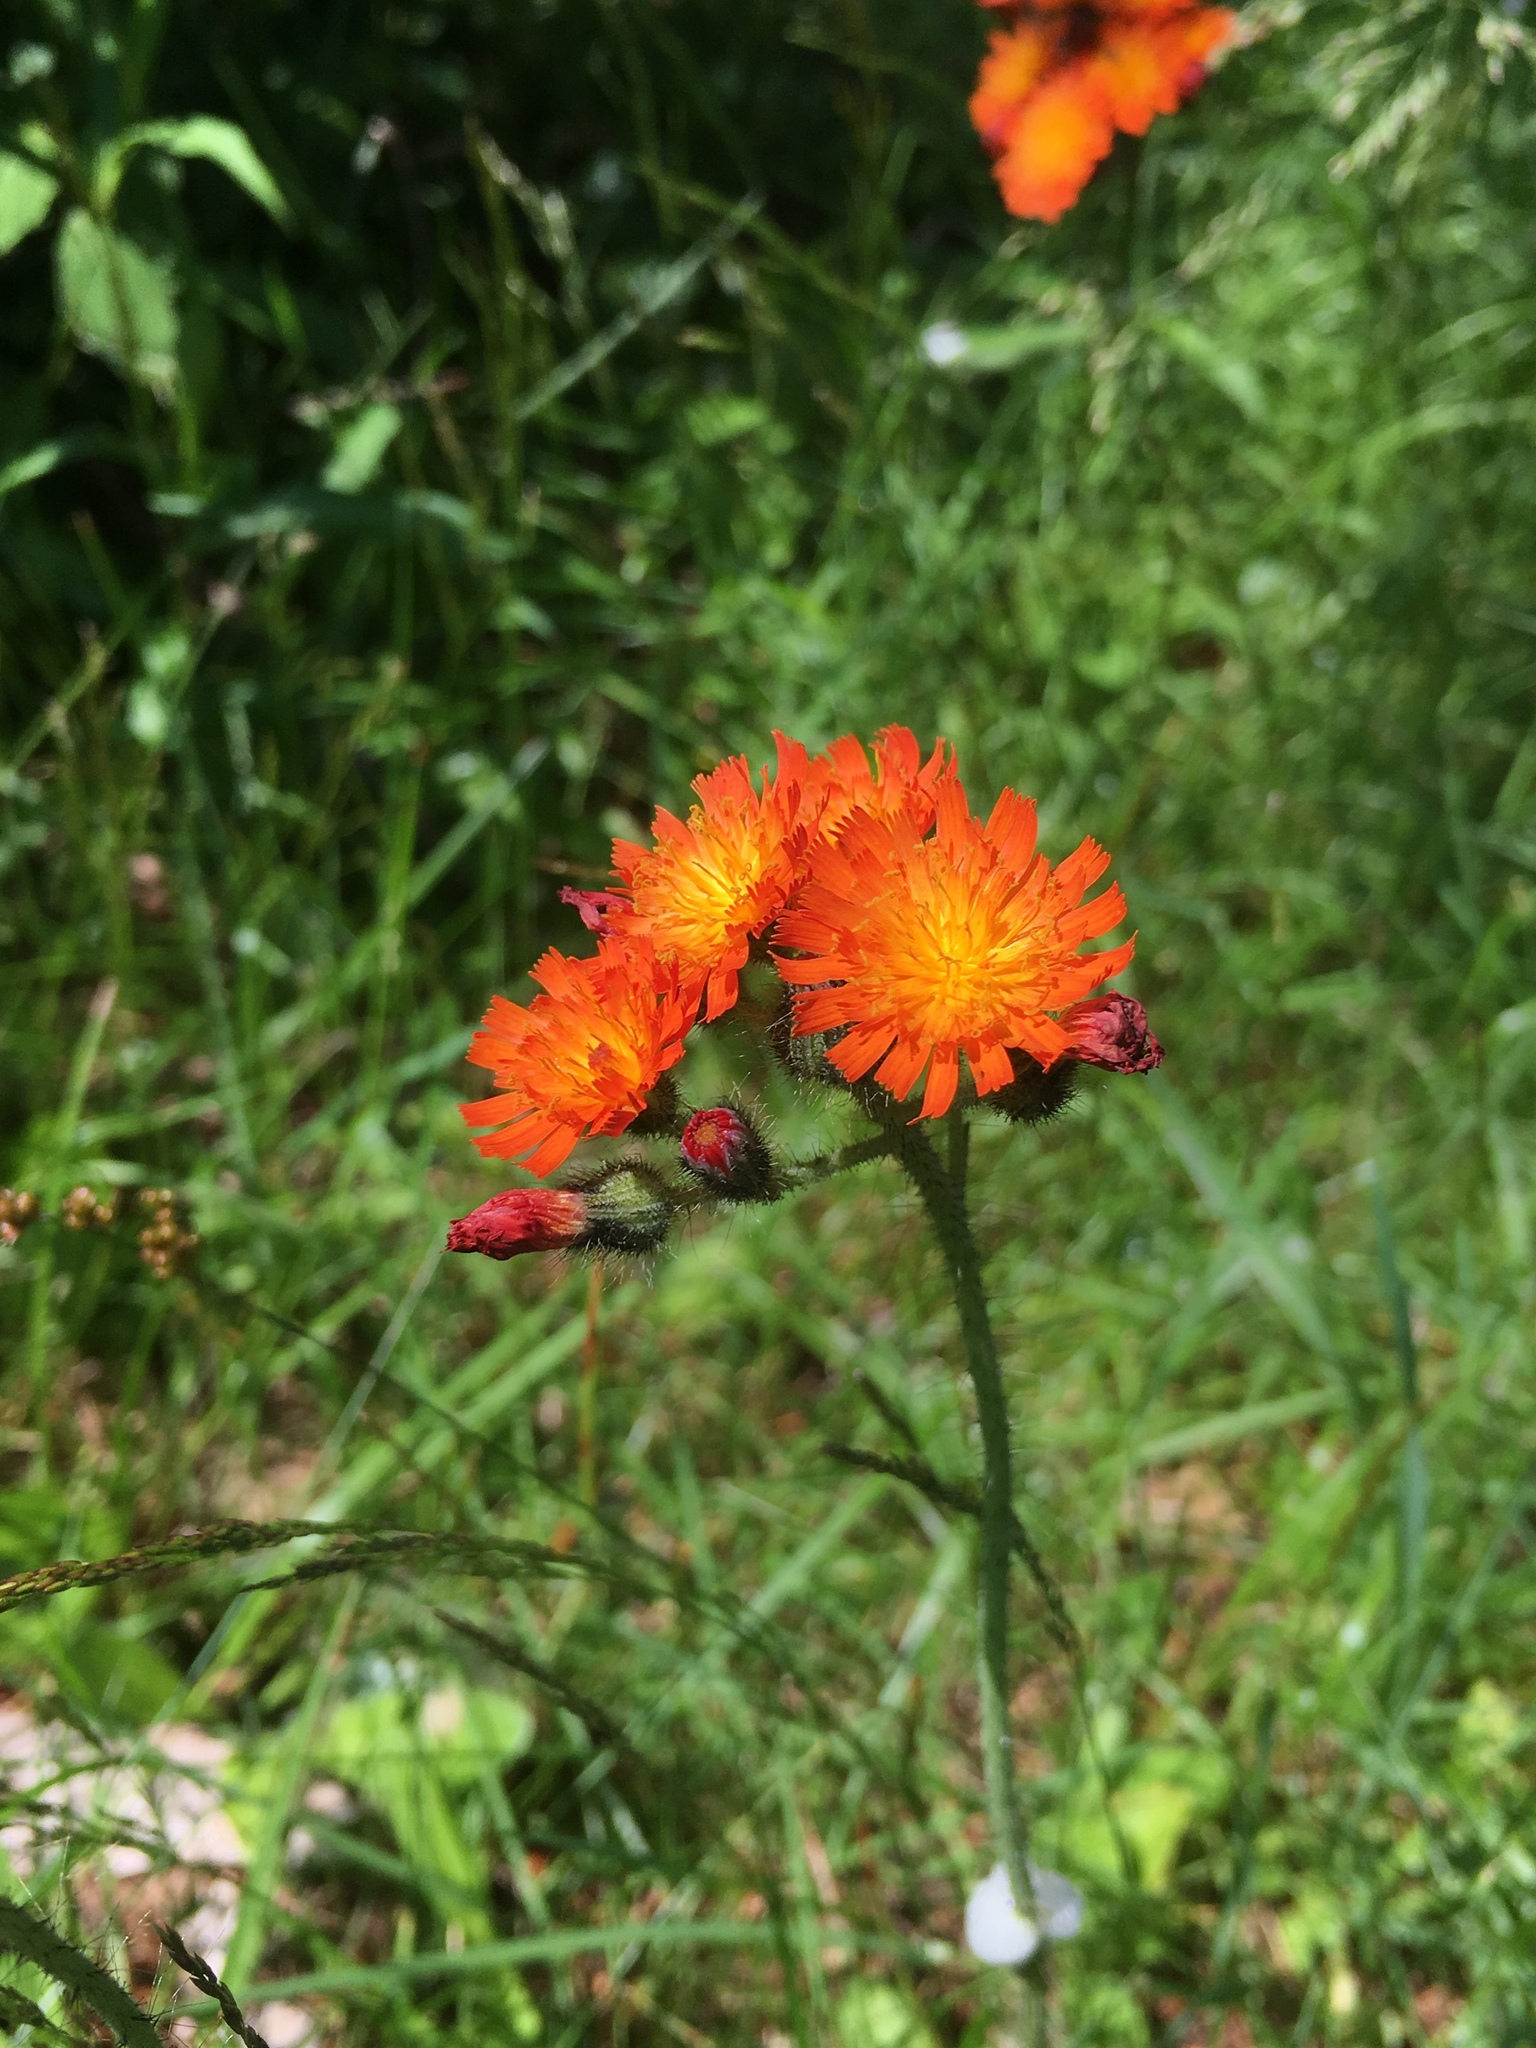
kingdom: Plantae
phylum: Tracheophyta
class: Magnoliopsida
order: Asterales
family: Asteraceae
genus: Pilosella
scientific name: Pilosella aurantiaca
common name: Fox-and-cubs
